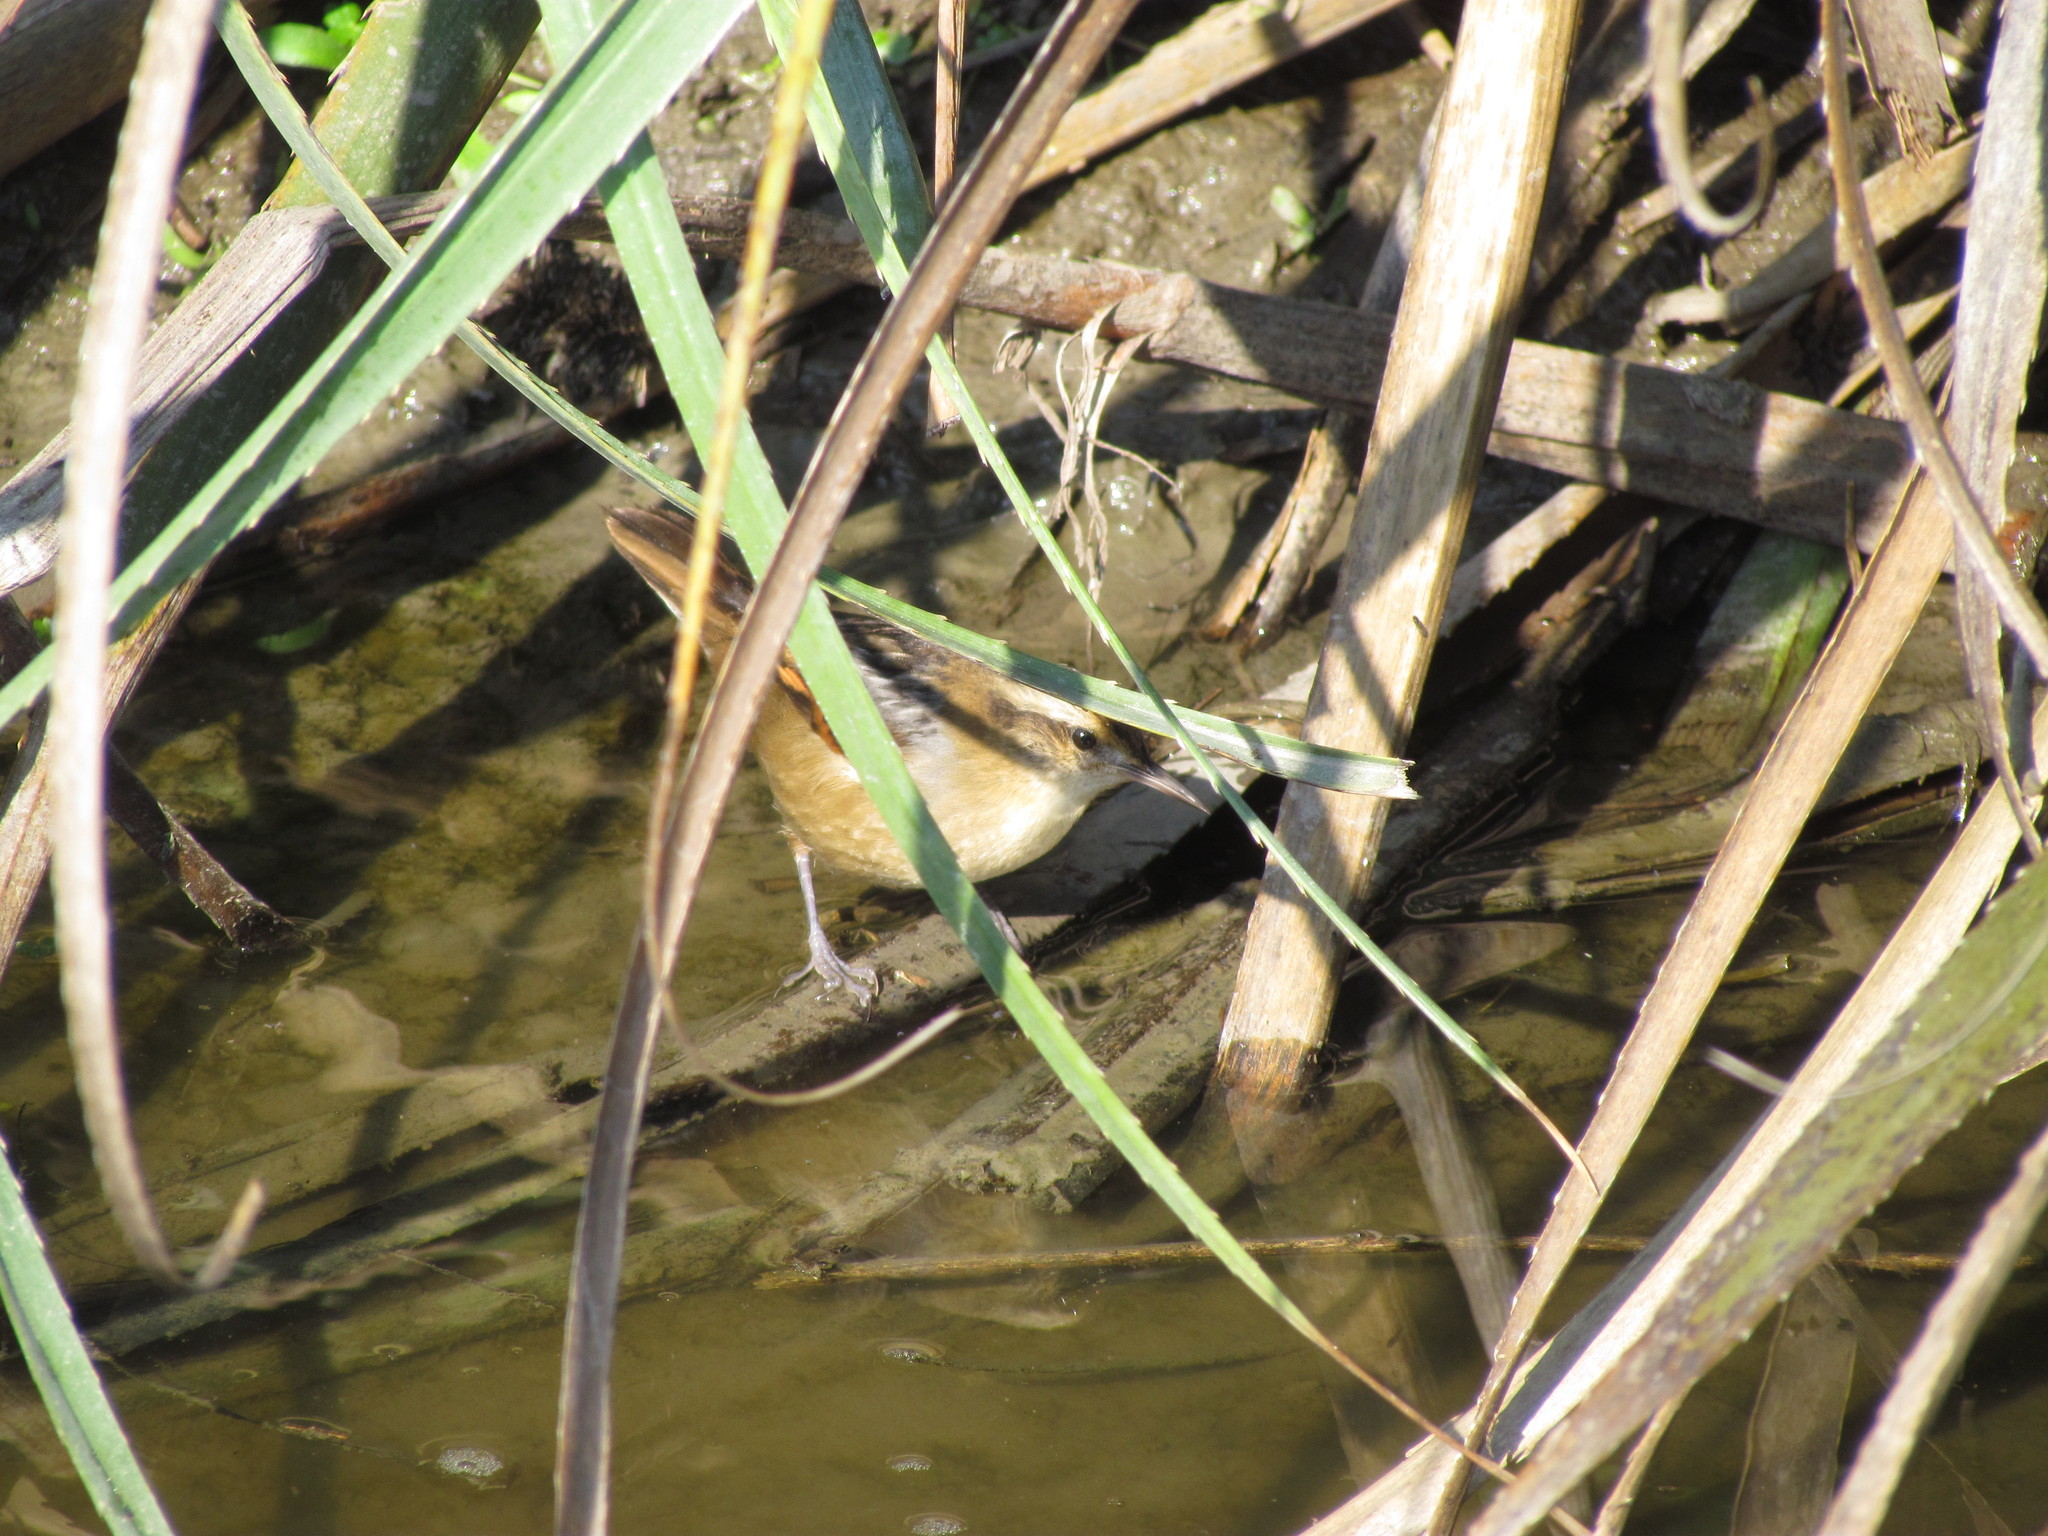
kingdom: Animalia
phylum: Chordata
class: Aves
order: Passeriformes
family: Furnariidae
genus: Phleocryptes
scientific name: Phleocryptes melanops
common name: Wren-like rushbird
